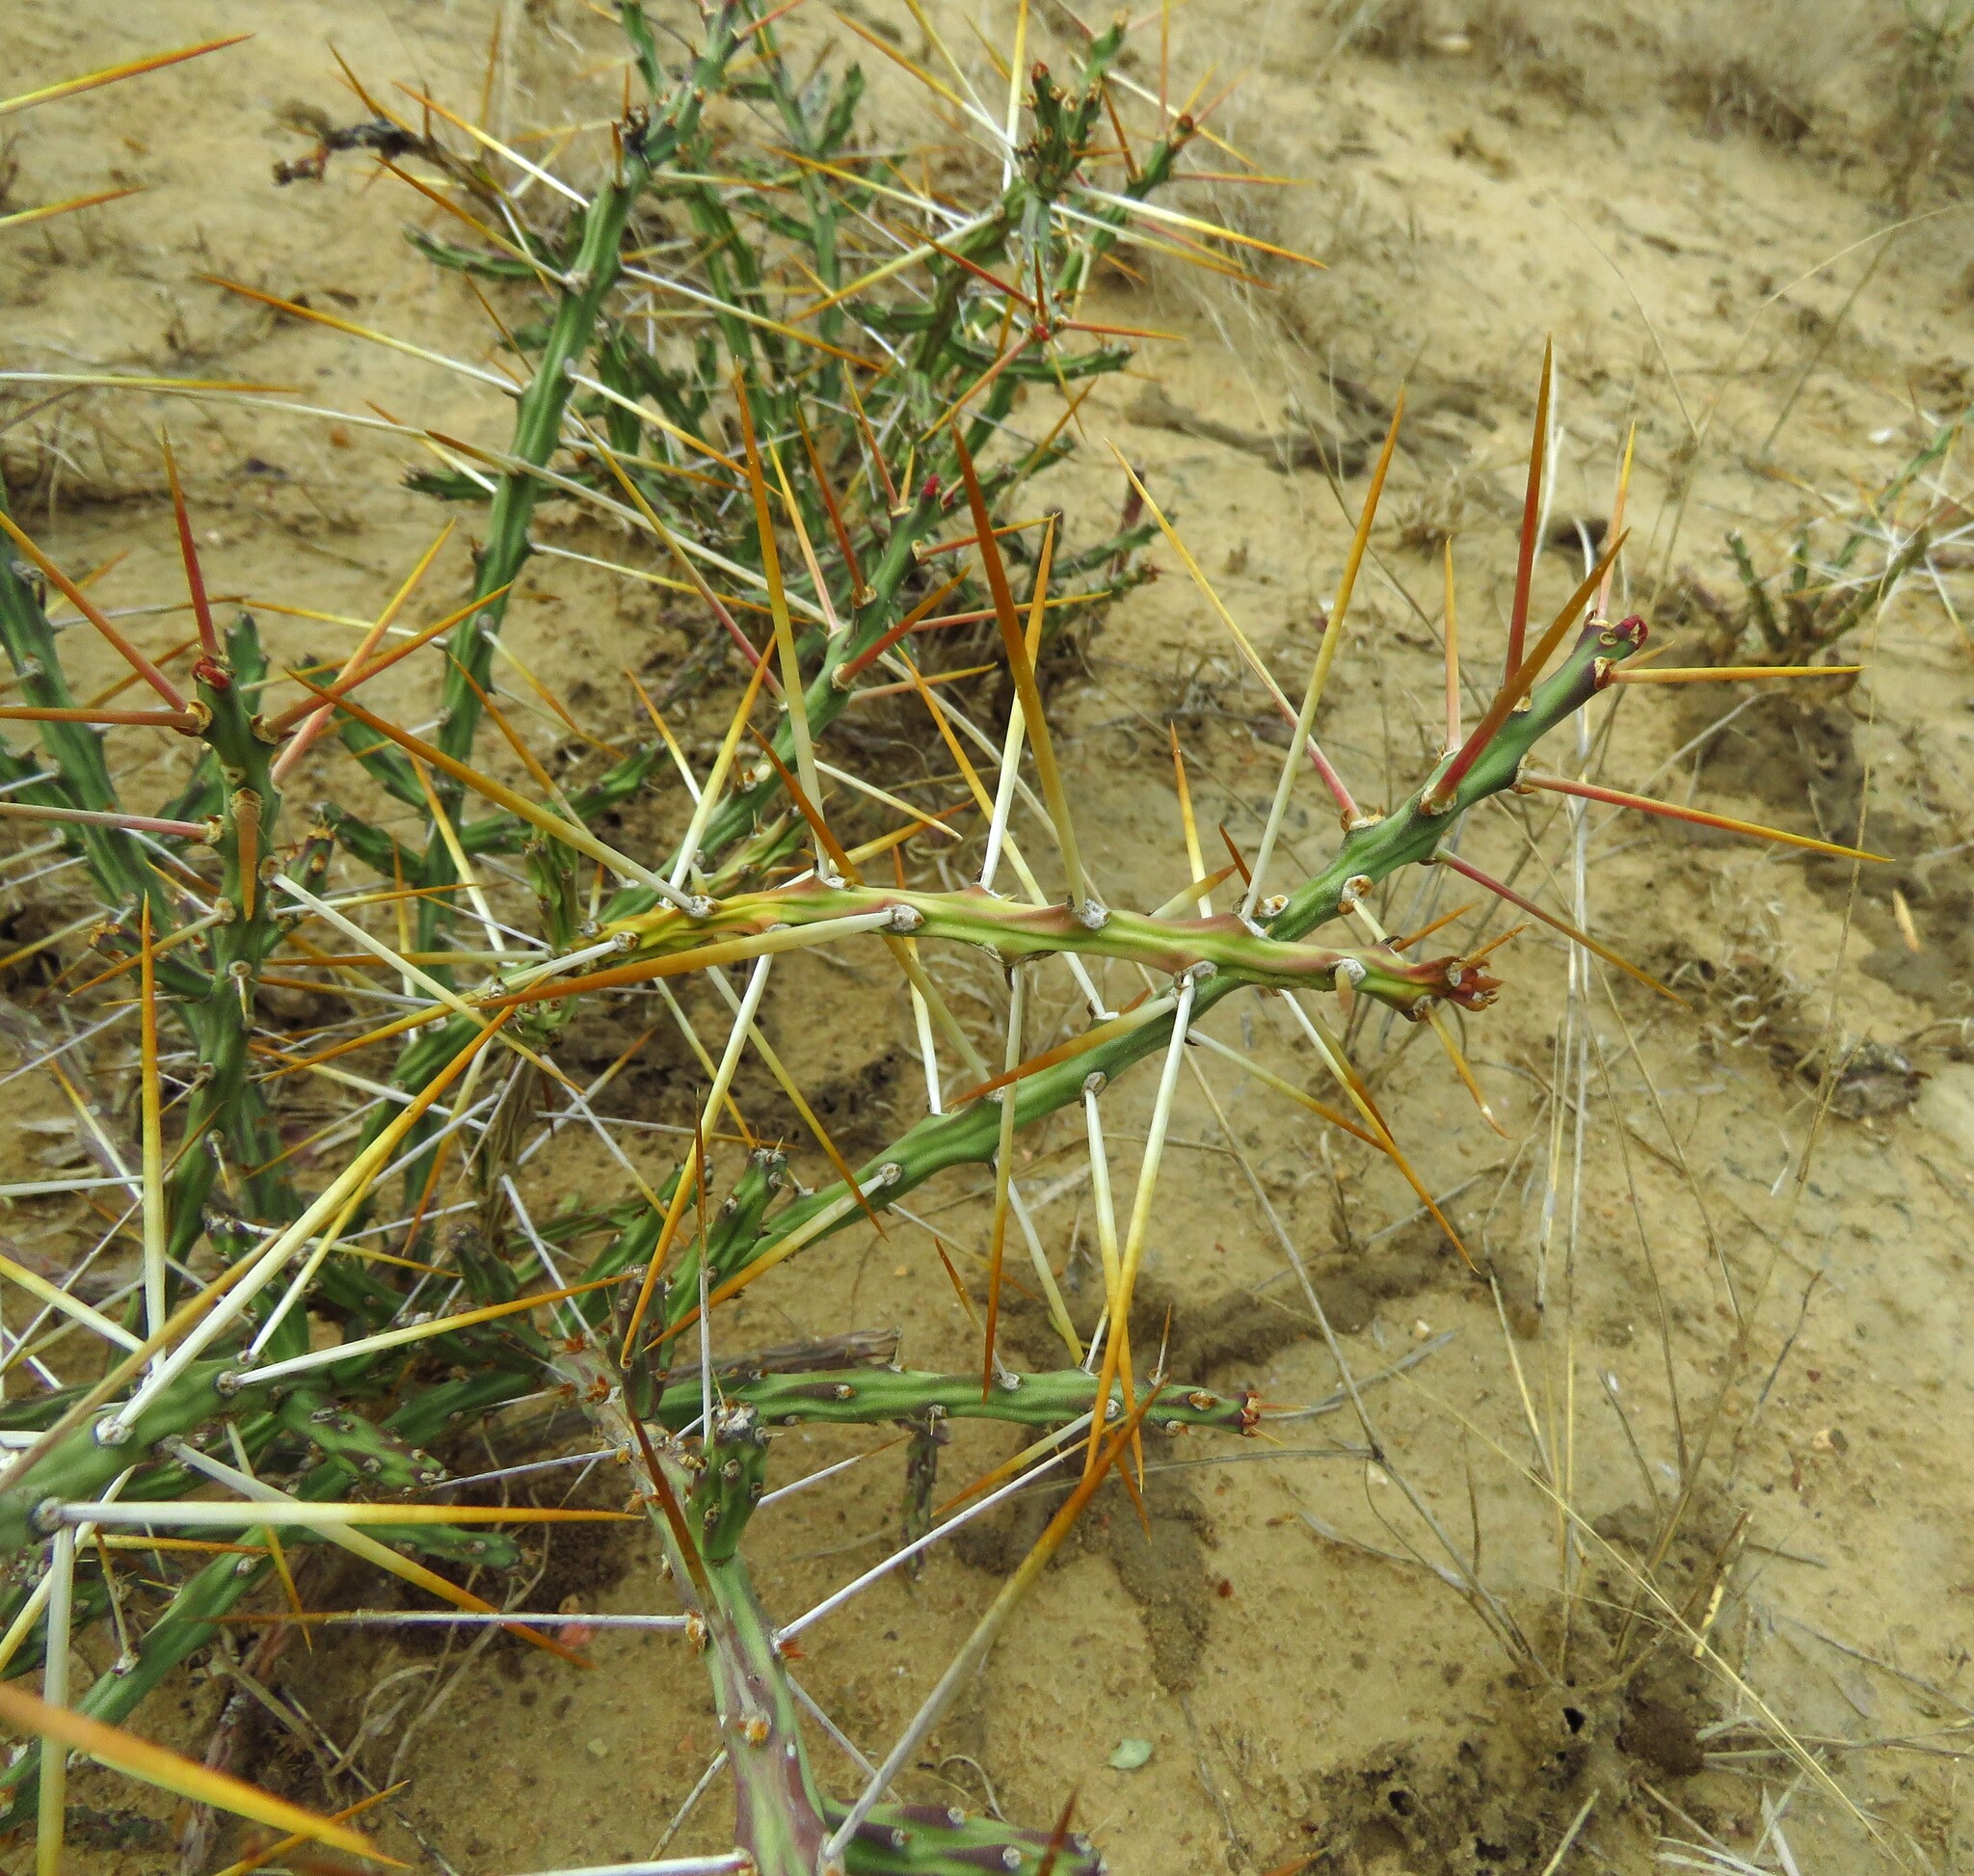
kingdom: Plantae
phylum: Tracheophyta
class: Magnoliopsida
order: Caryophyllales
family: Cactaceae
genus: Cylindropuntia
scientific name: Cylindropuntia leptocaulis
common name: Christmas cactus
